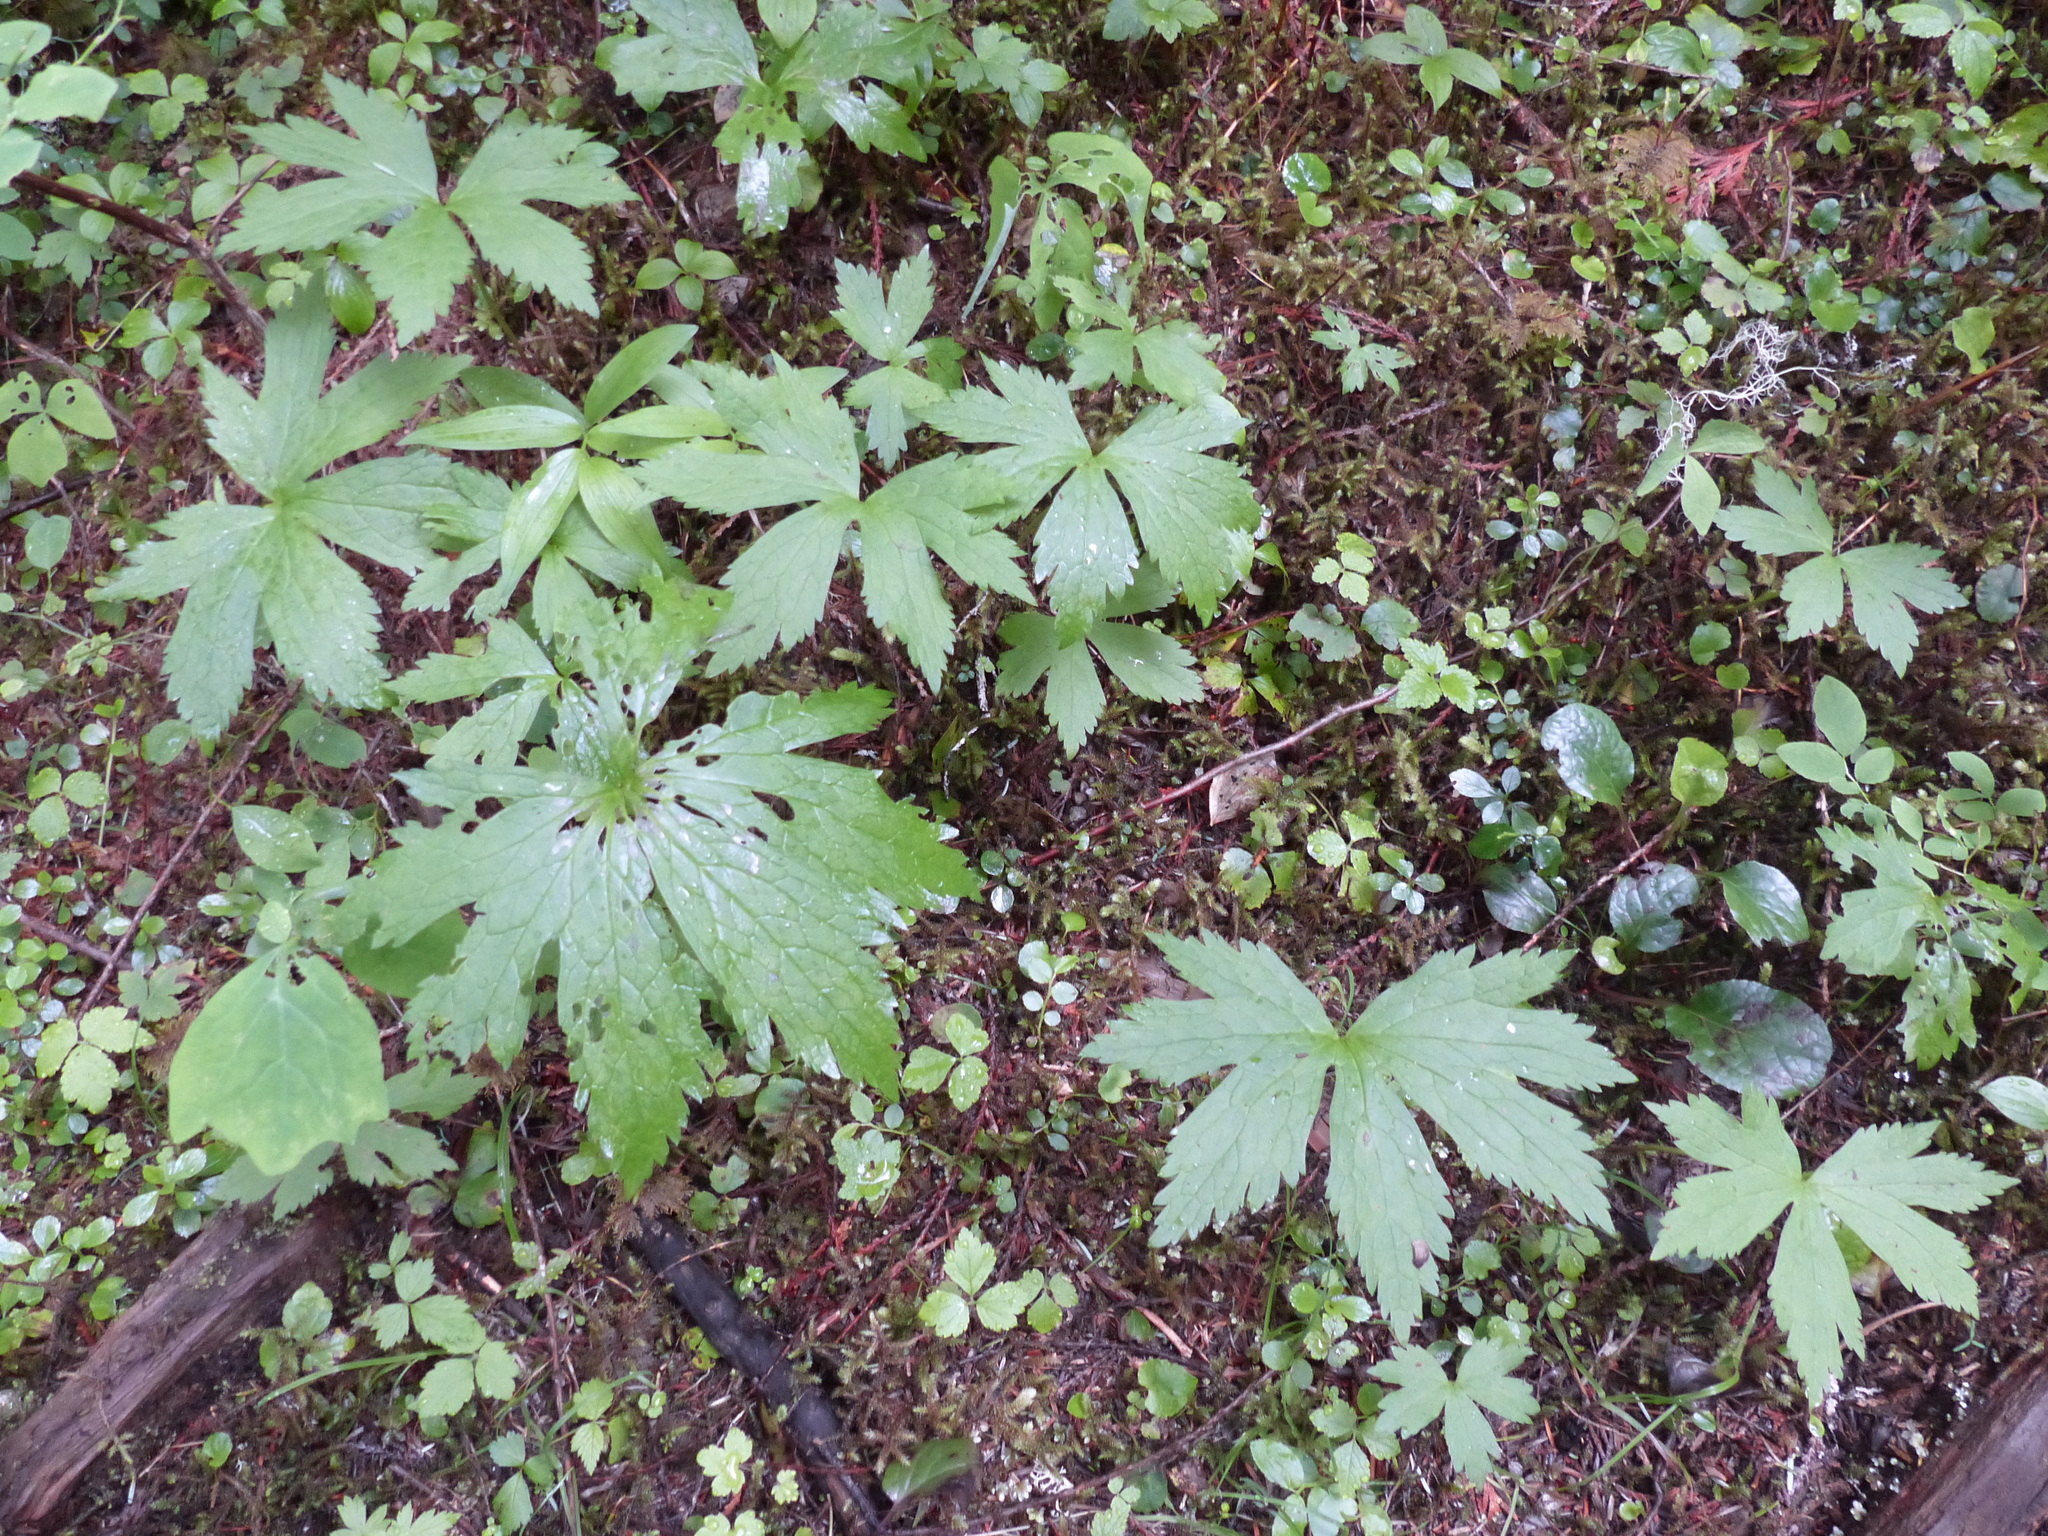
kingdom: Plantae
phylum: Tracheophyta
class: Magnoliopsida
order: Ranunculales
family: Ranunculaceae
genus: Trautvetteria
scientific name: Trautvetteria carolinensis
